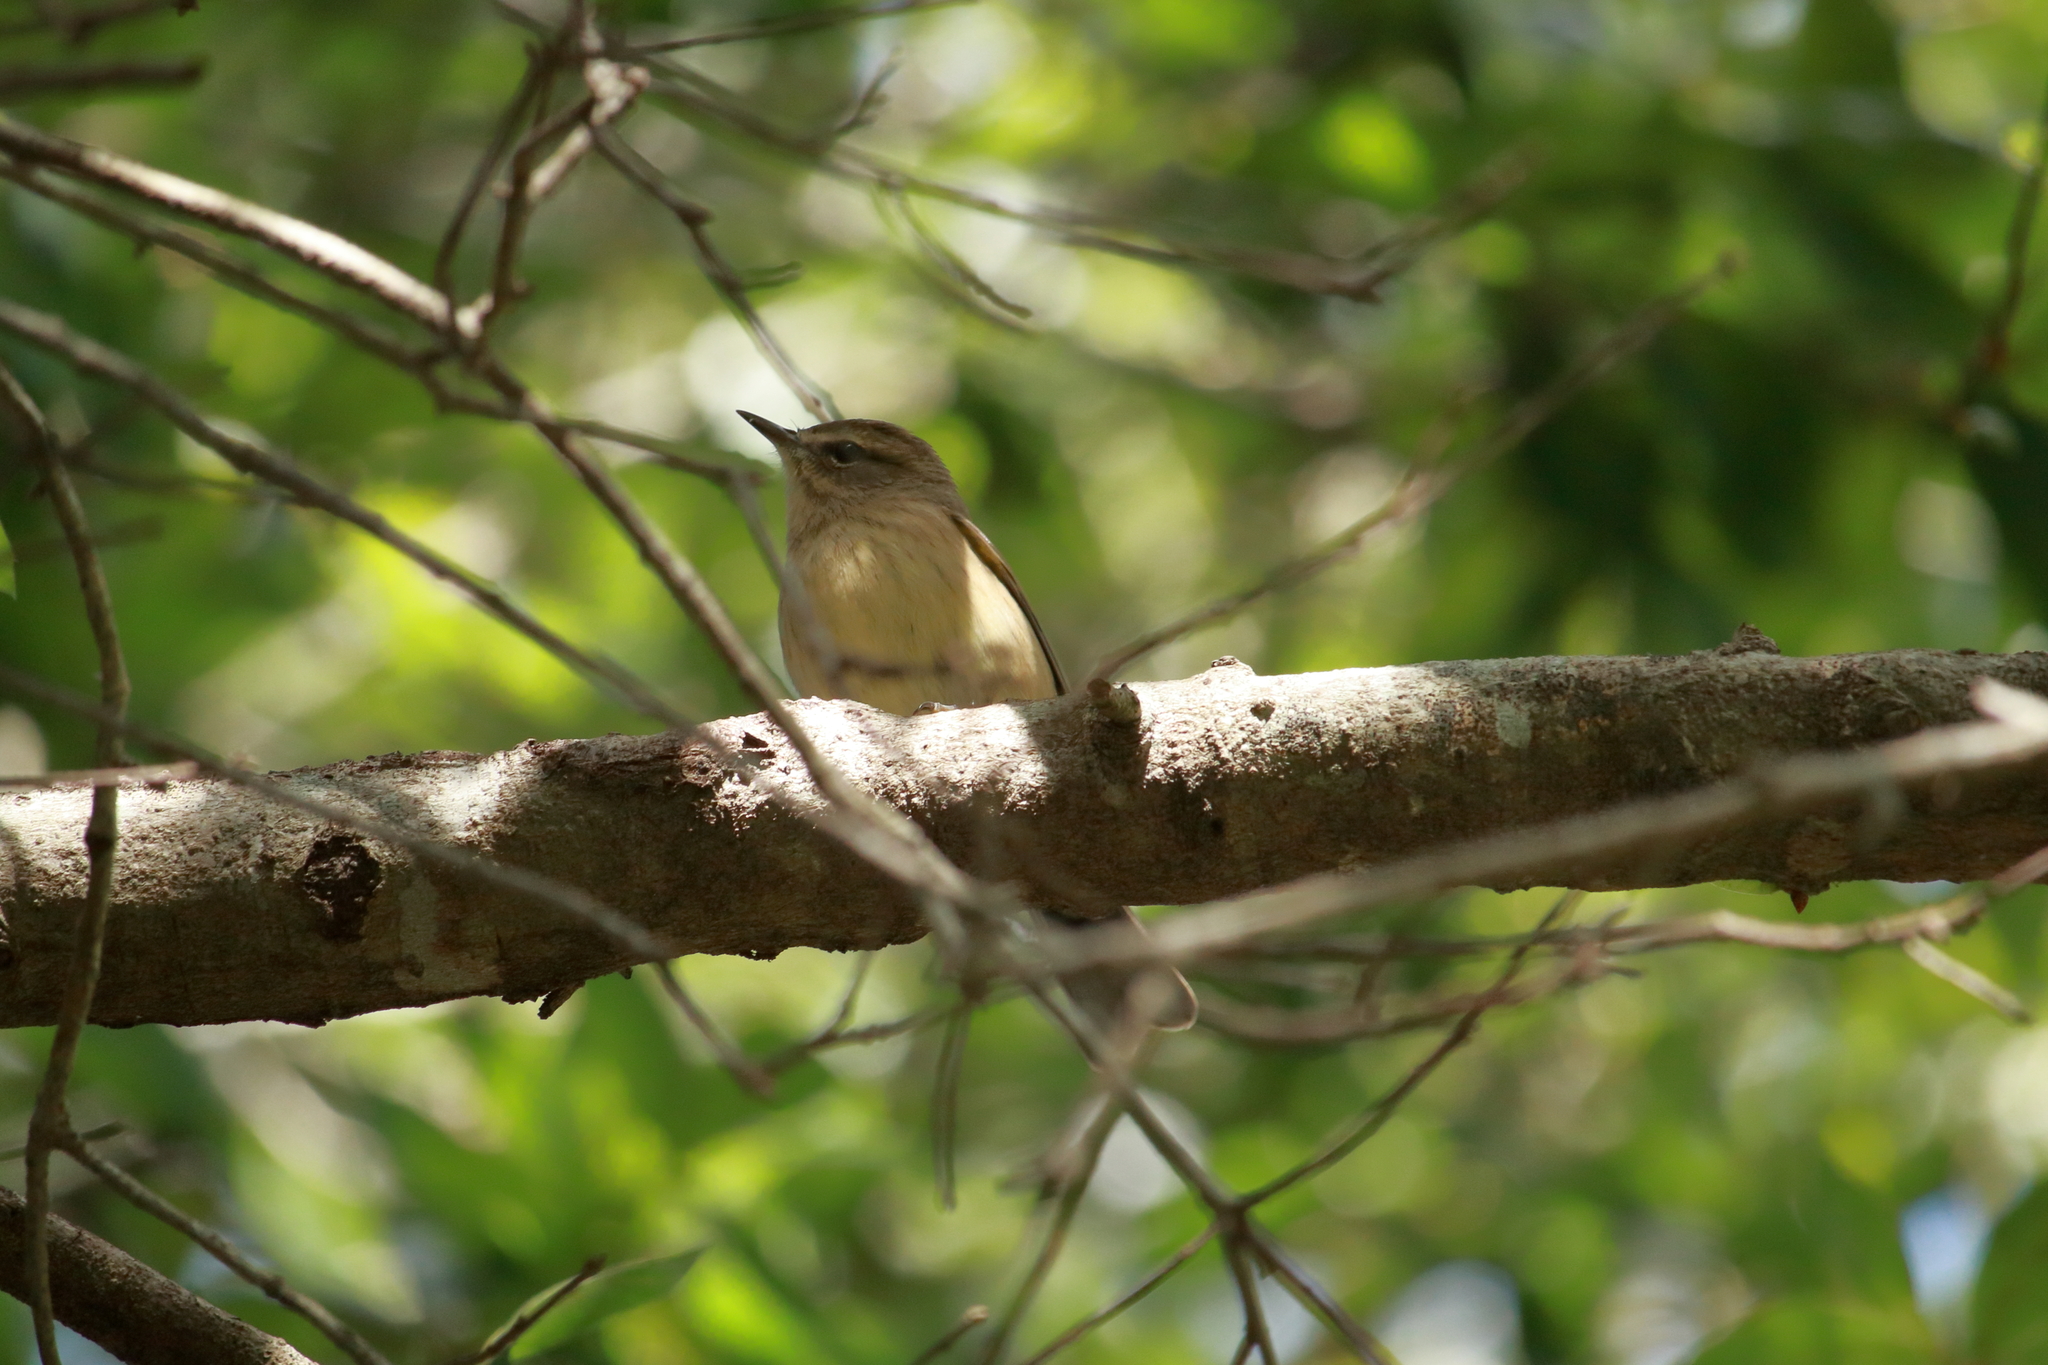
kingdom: Animalia
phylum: Chordata
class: Aves
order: Passeriformes
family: Parulidae
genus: Setophaga
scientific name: Setophaga palmarum
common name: Palm warbler
